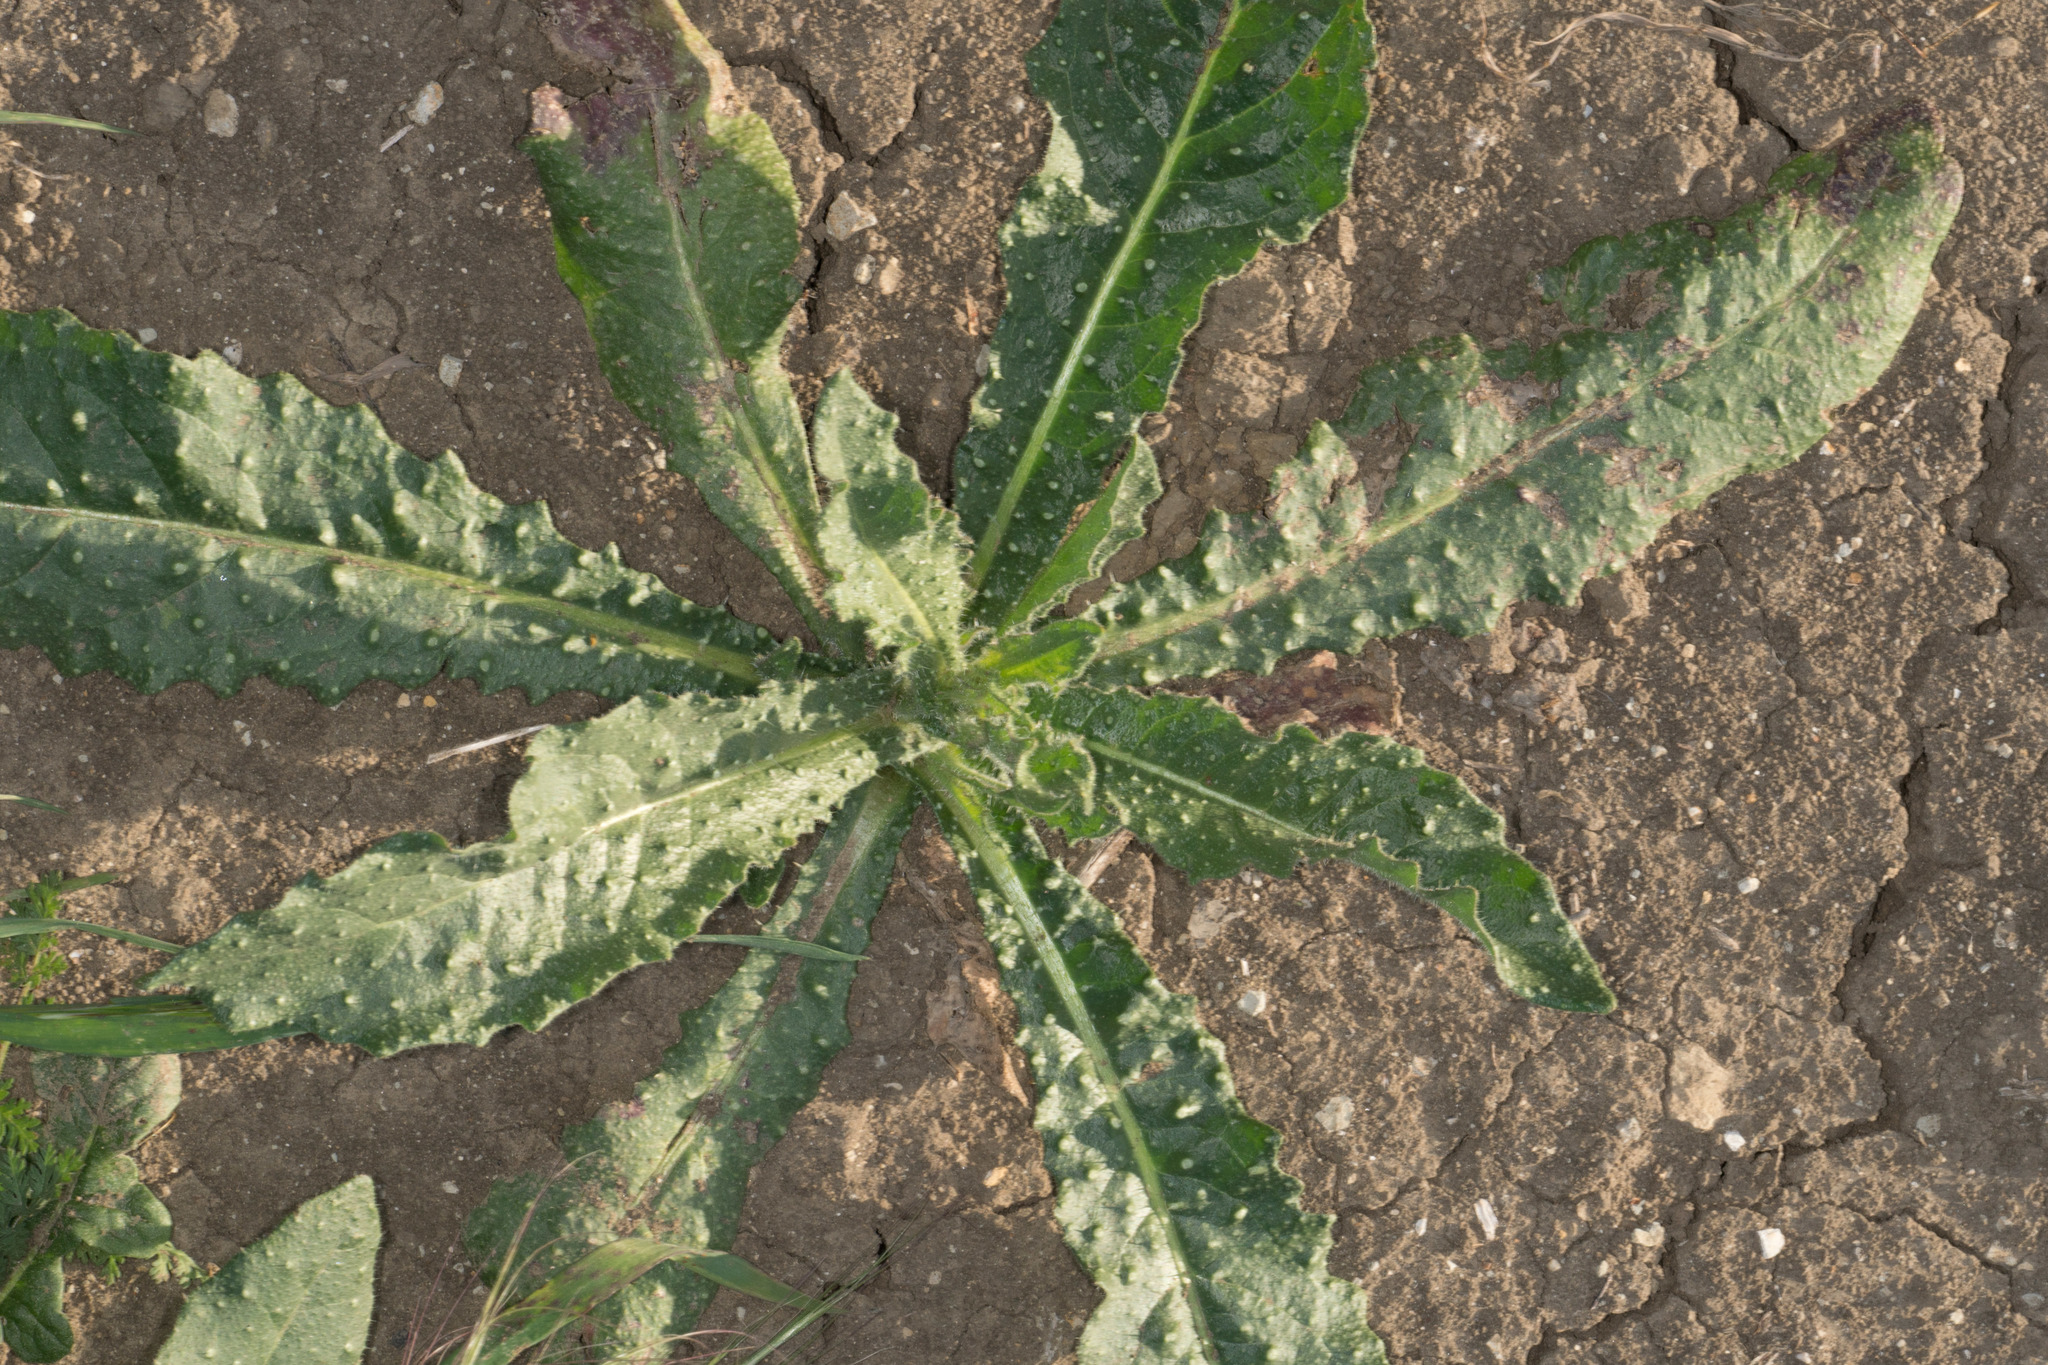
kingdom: Plantae
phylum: Tracheophyta
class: Magnoliopsida
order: Asterales
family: Asteraceae
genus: Helminthotheca
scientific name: Helminthotheca echioides
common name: Ox-tongue
